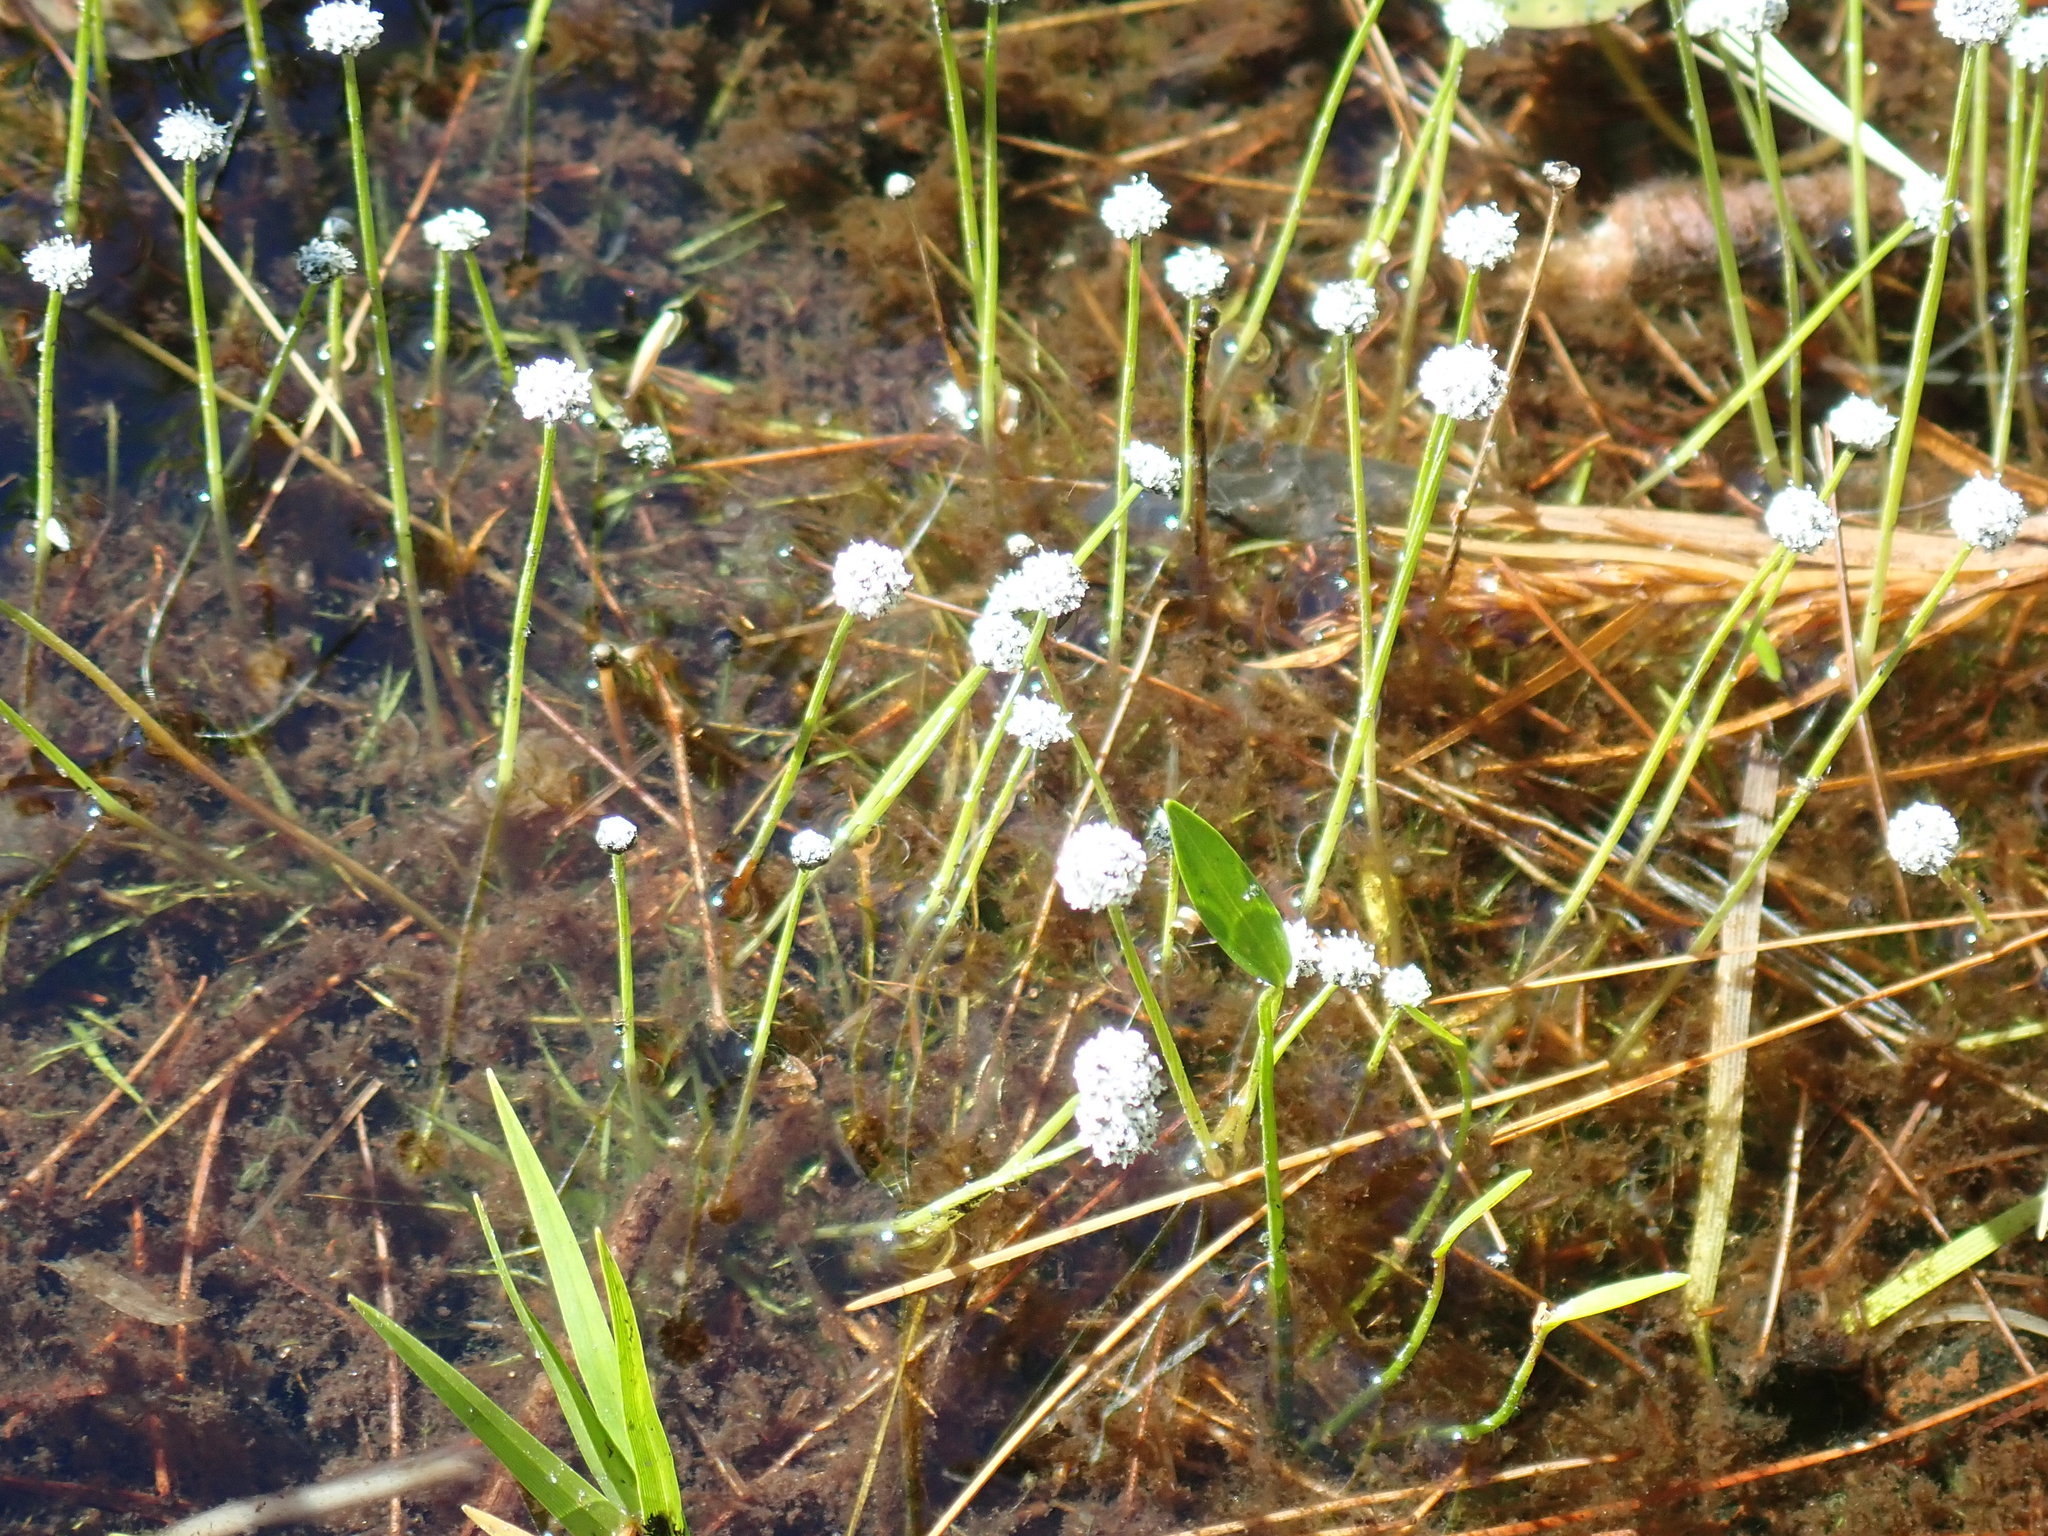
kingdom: Plantae
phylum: Tracheophyta
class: Liliopsida
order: Poales
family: Eriocaulaceae
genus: Eriocaulon
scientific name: Eriocaulon aquaticum
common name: Pipewort
